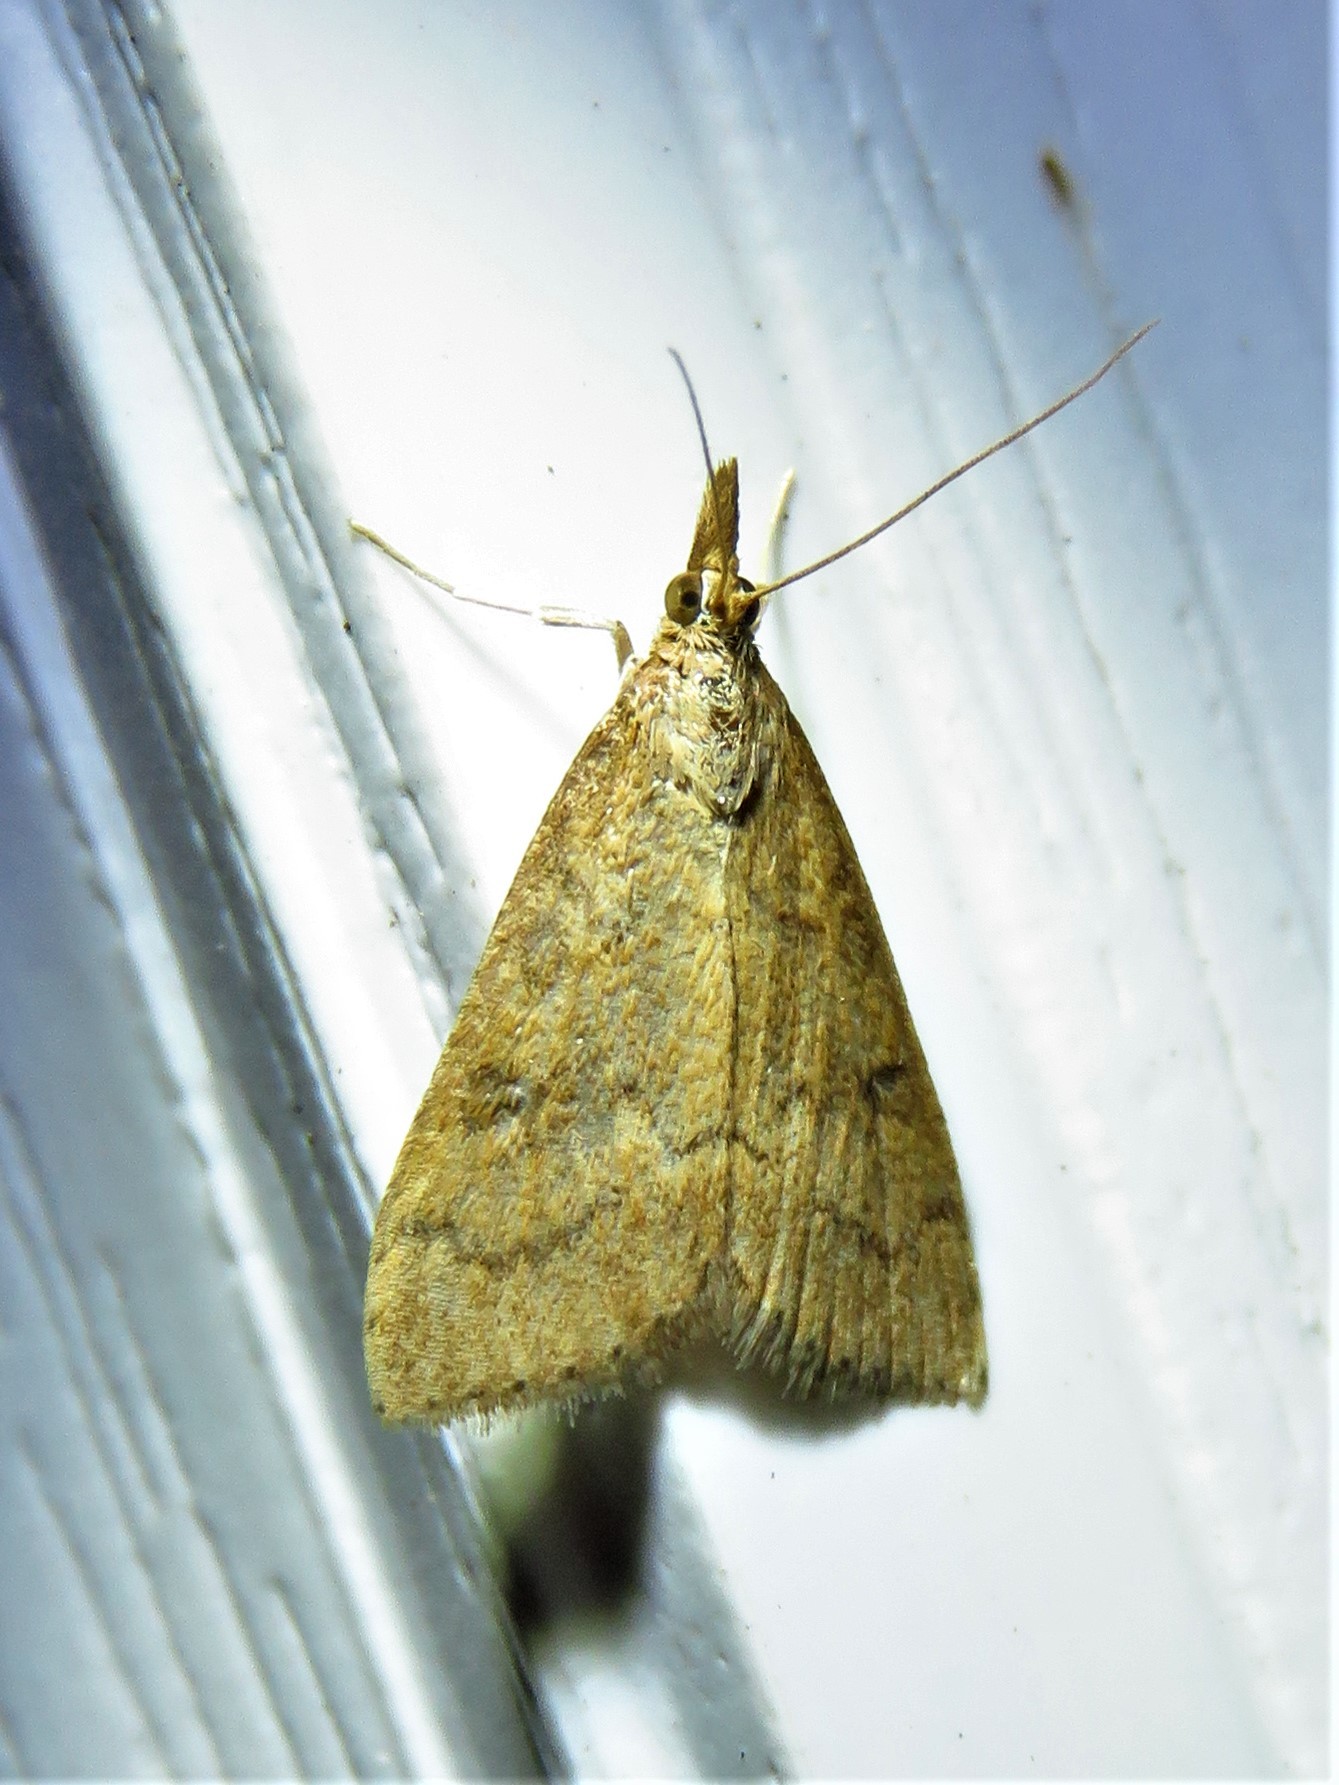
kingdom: Animalia
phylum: Arthropoda
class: Insecta
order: Lepidoptera
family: Crambidae
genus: Udea
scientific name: Udea rubigalis
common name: Celery leaftier moth
